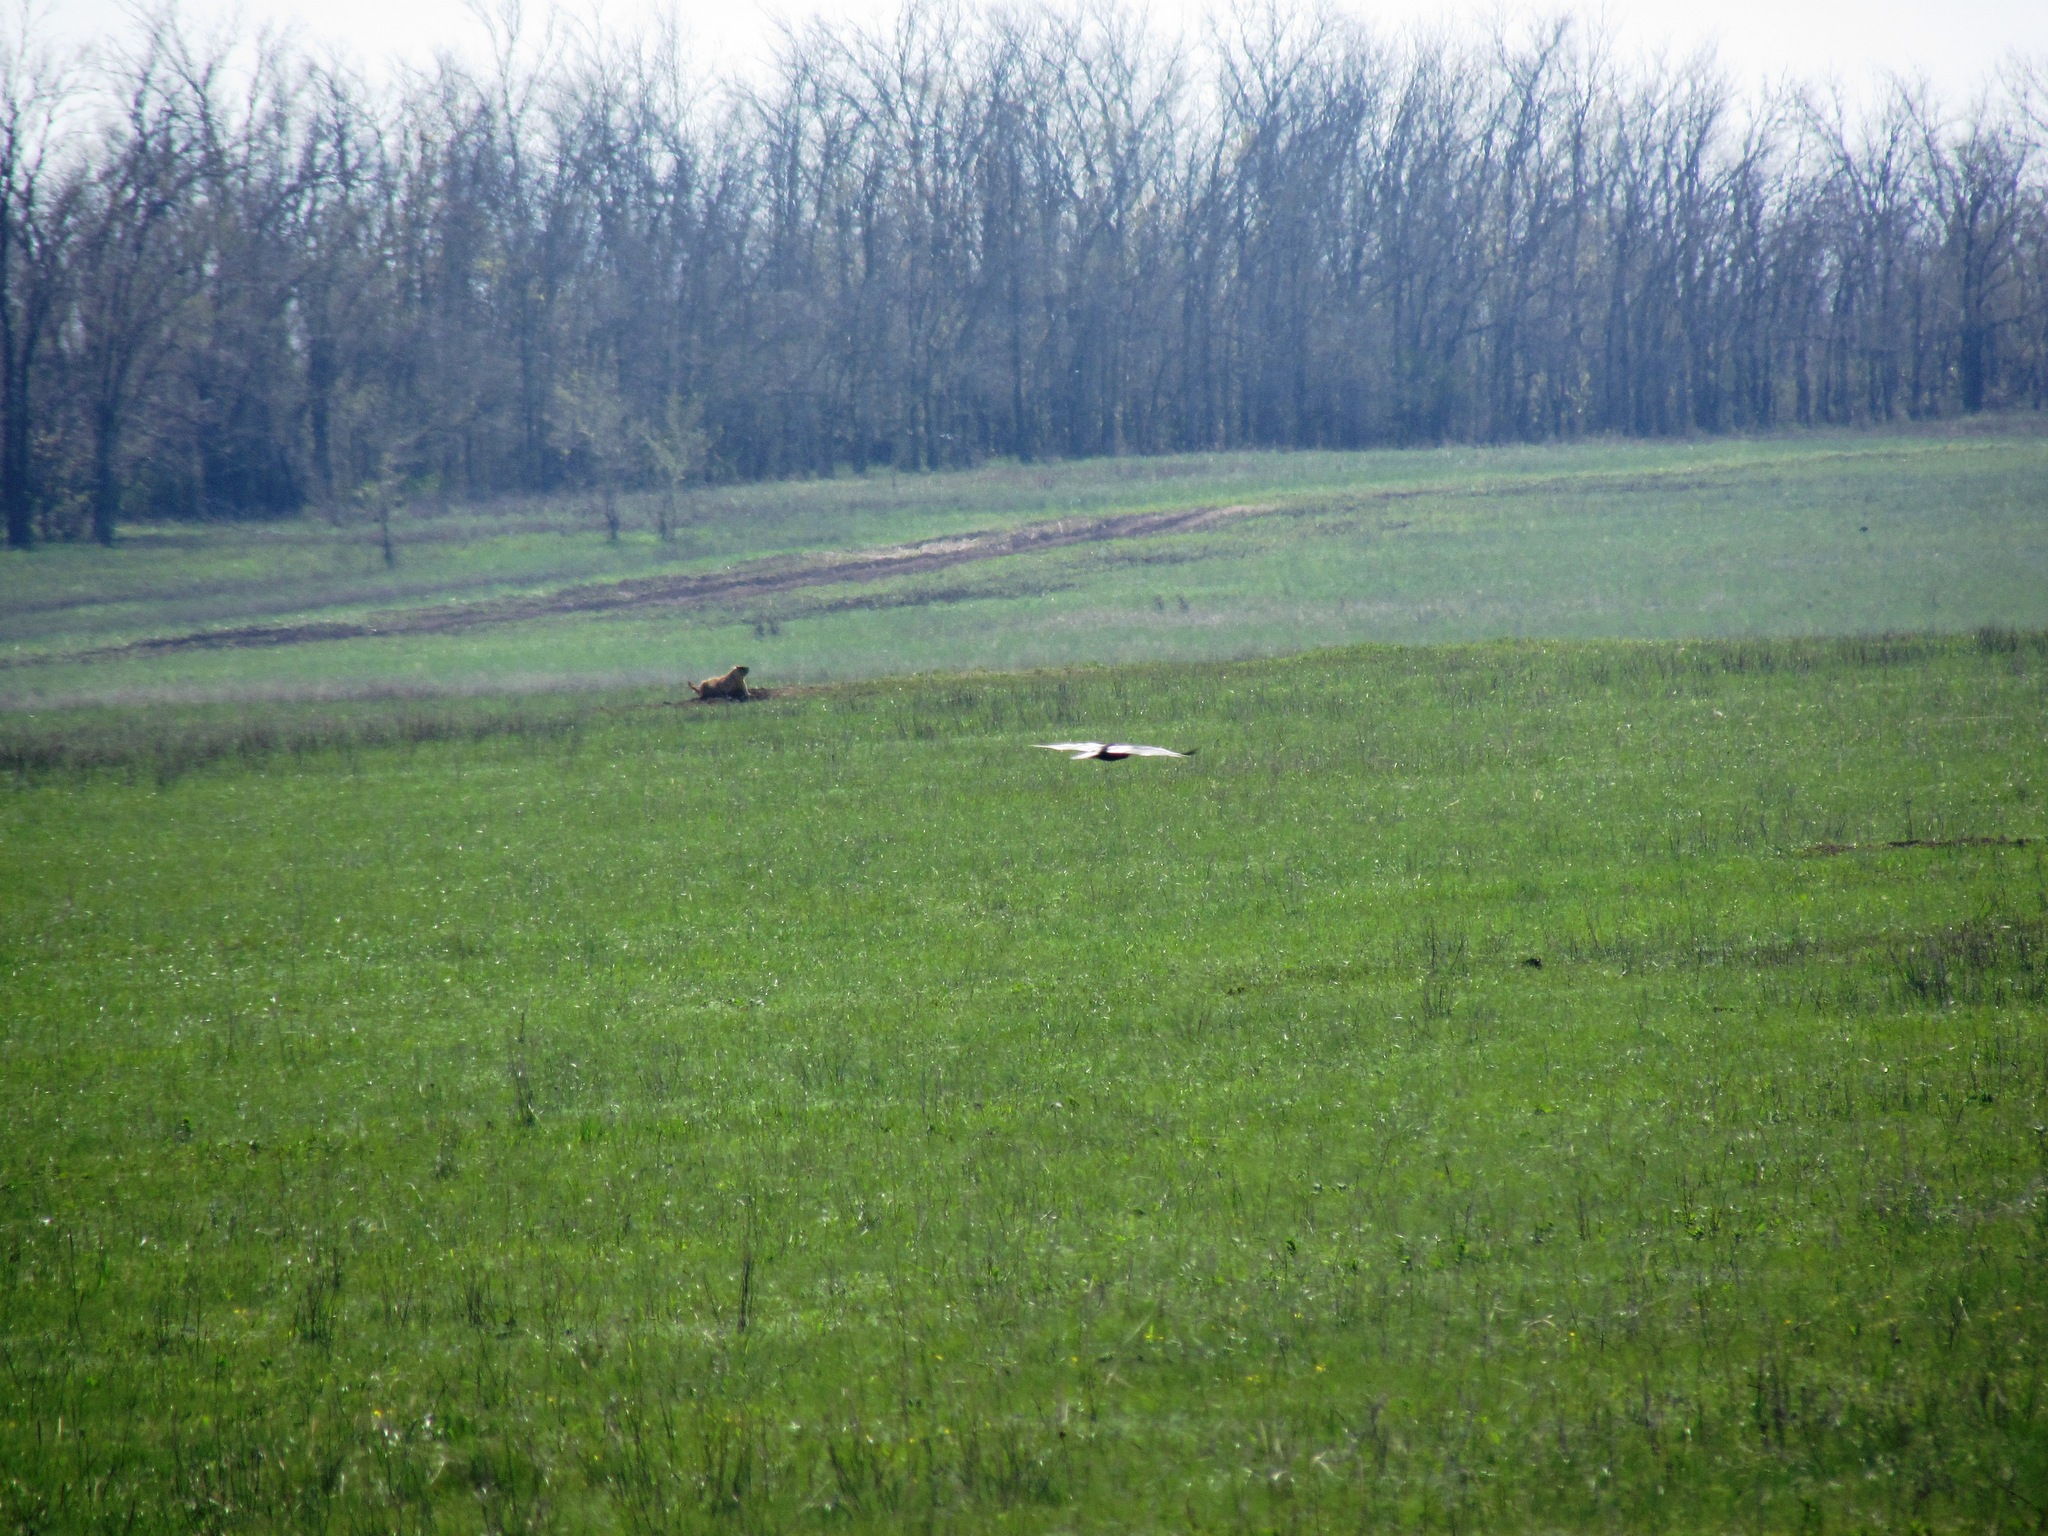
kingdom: Animalia
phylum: Chordata
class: Mammalia
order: Rodentia
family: Sciuridae
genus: Marmota
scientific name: Marmota bobak
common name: Bobak marmot
